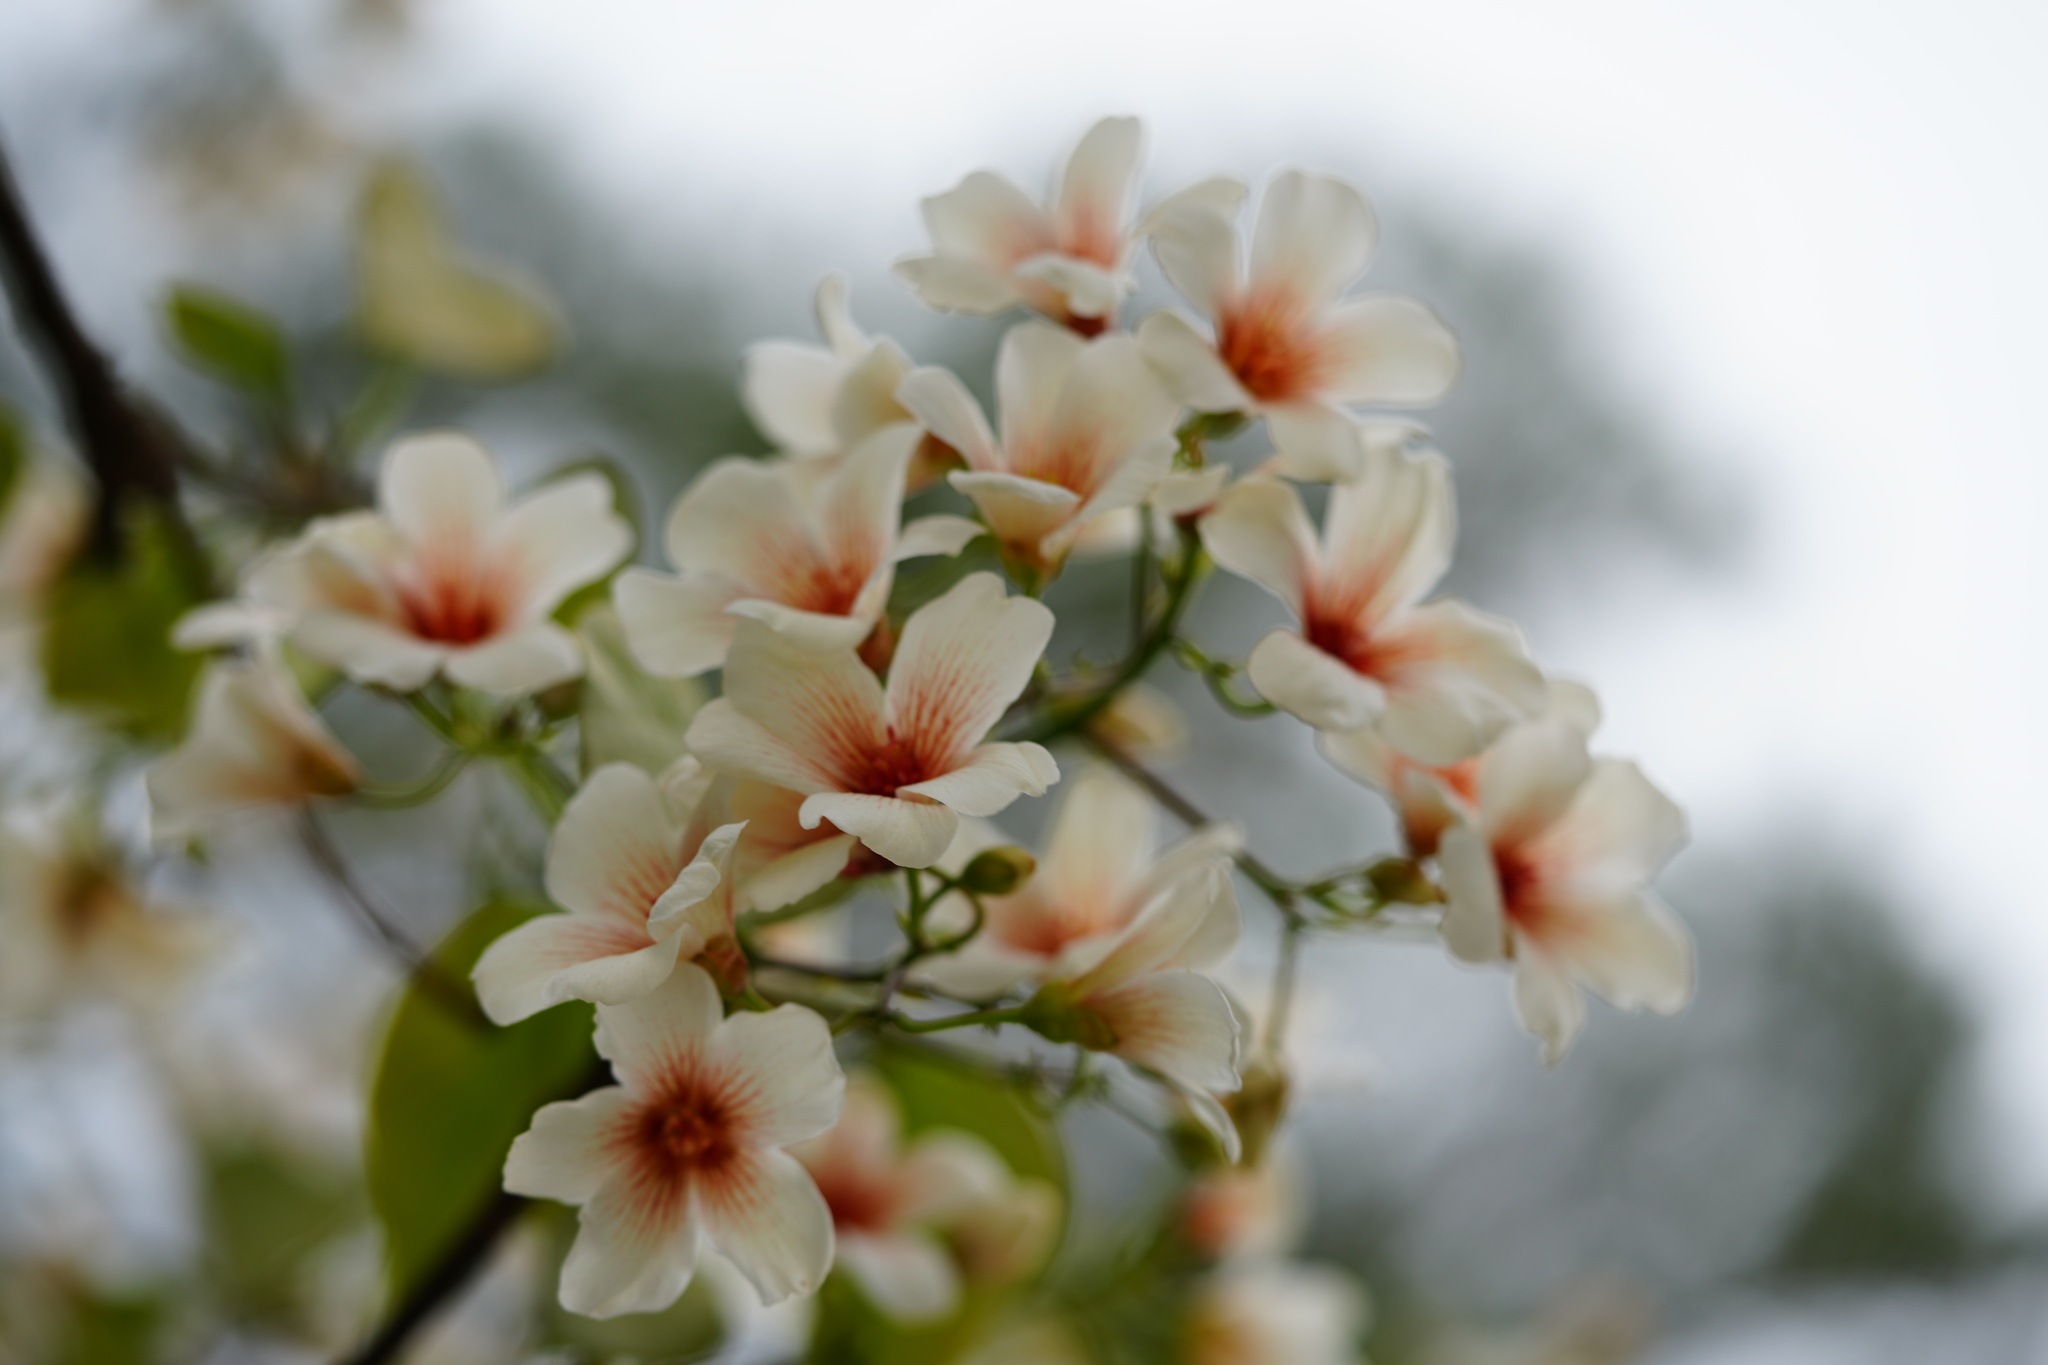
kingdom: Plantae
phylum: Tracheophyta
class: Magnoliopsida
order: Malpighiales
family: Euphorbiaceae
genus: Vernicia
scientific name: Vernicia fordii
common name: Tungoil tree
